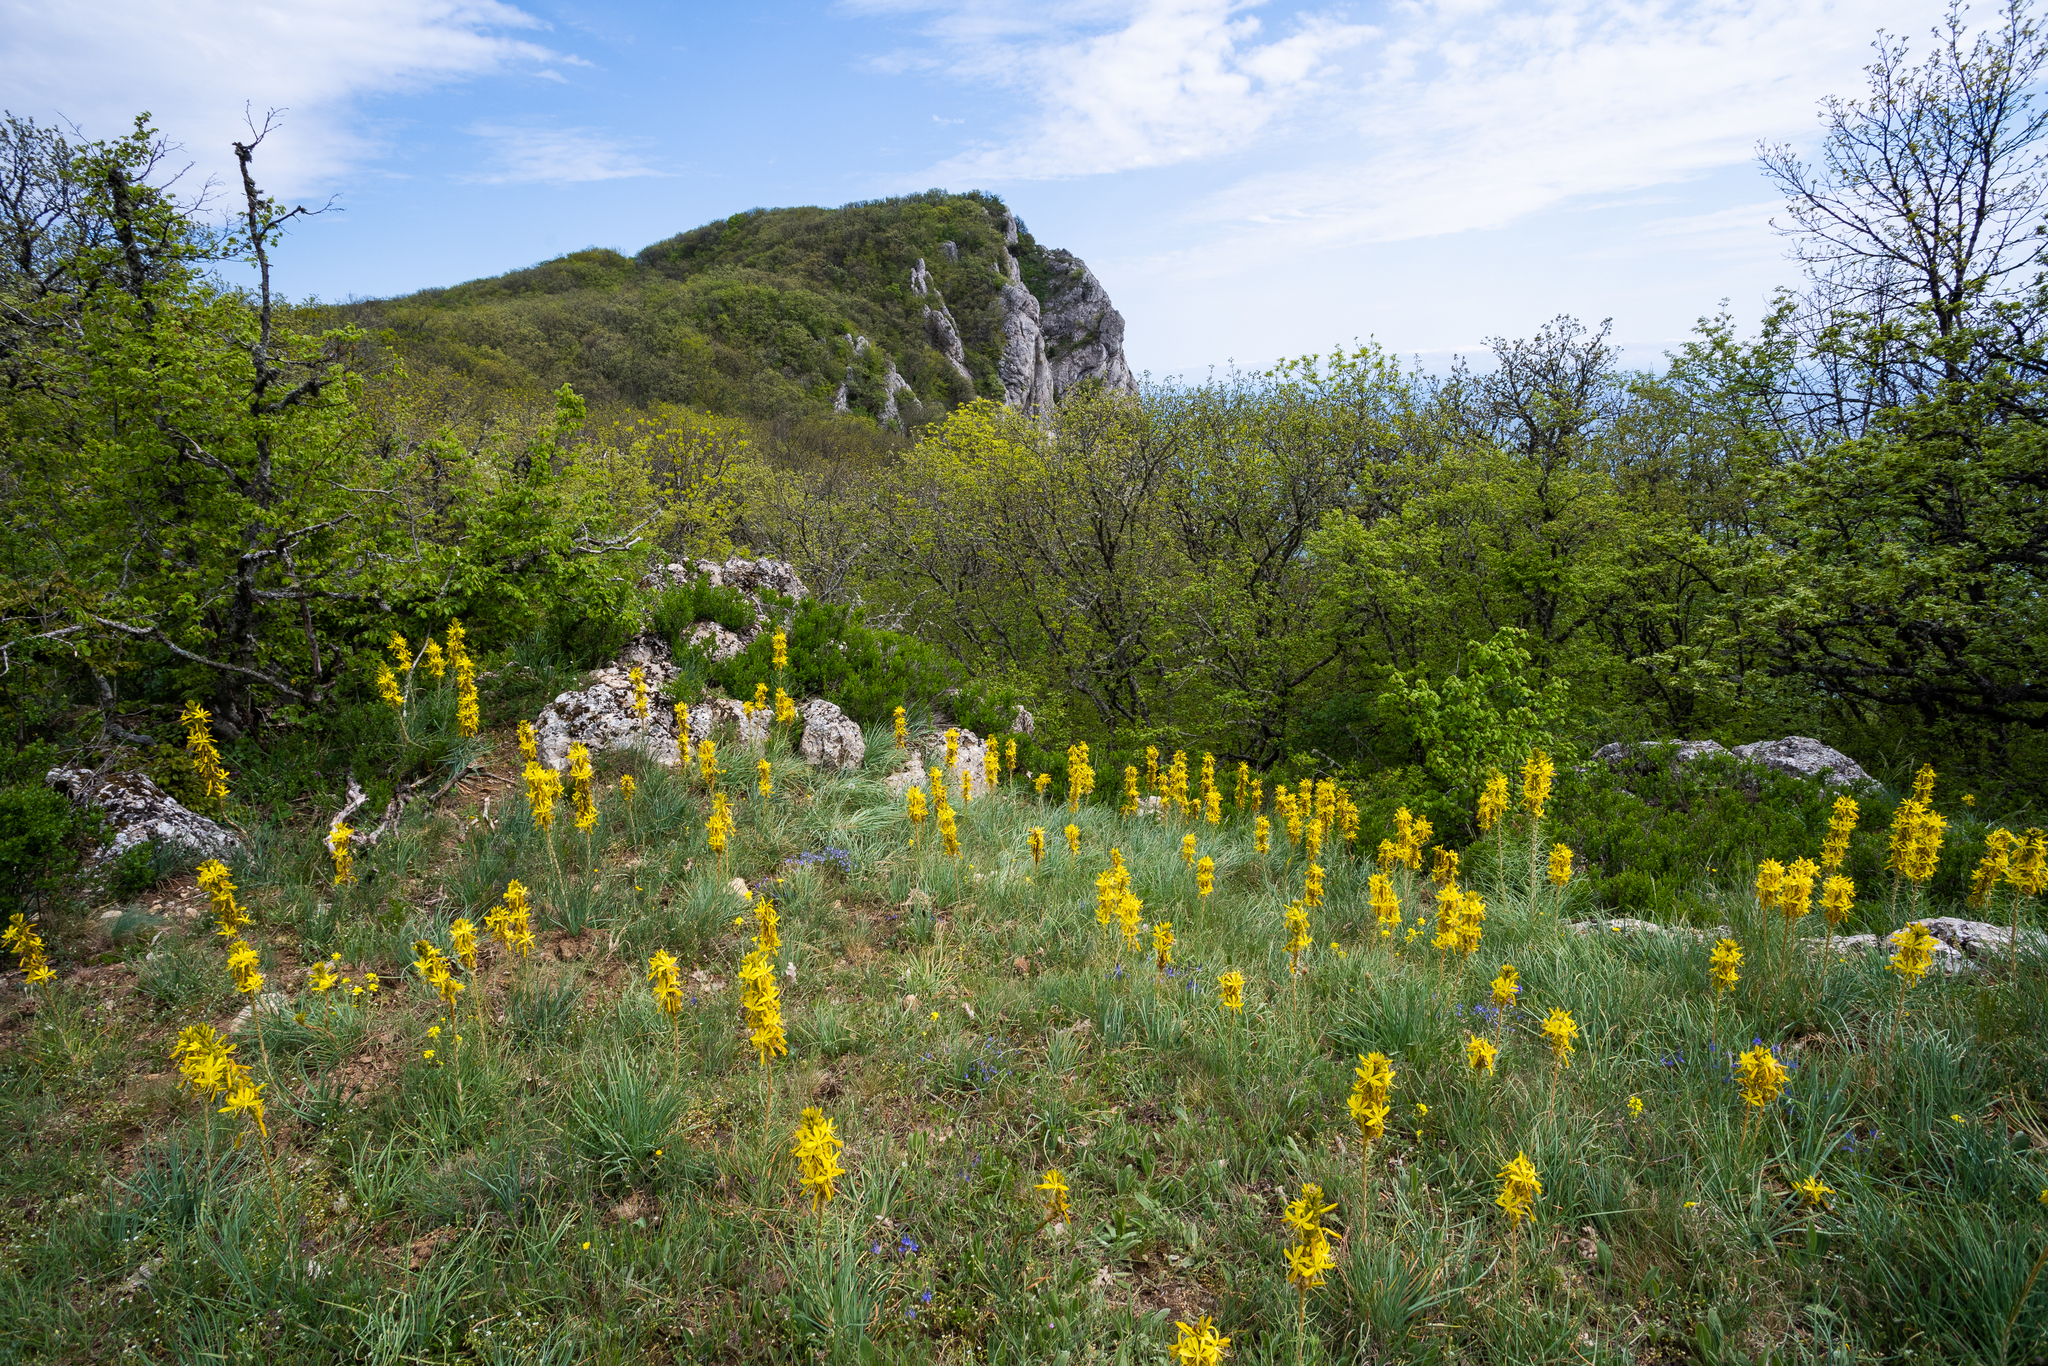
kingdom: Plantae
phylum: Tracheophyta
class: Liliopsida
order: Asparagales
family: Asphodelaceae
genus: Asphodeline
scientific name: Asphodeline lutea
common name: Yellow asphodel
